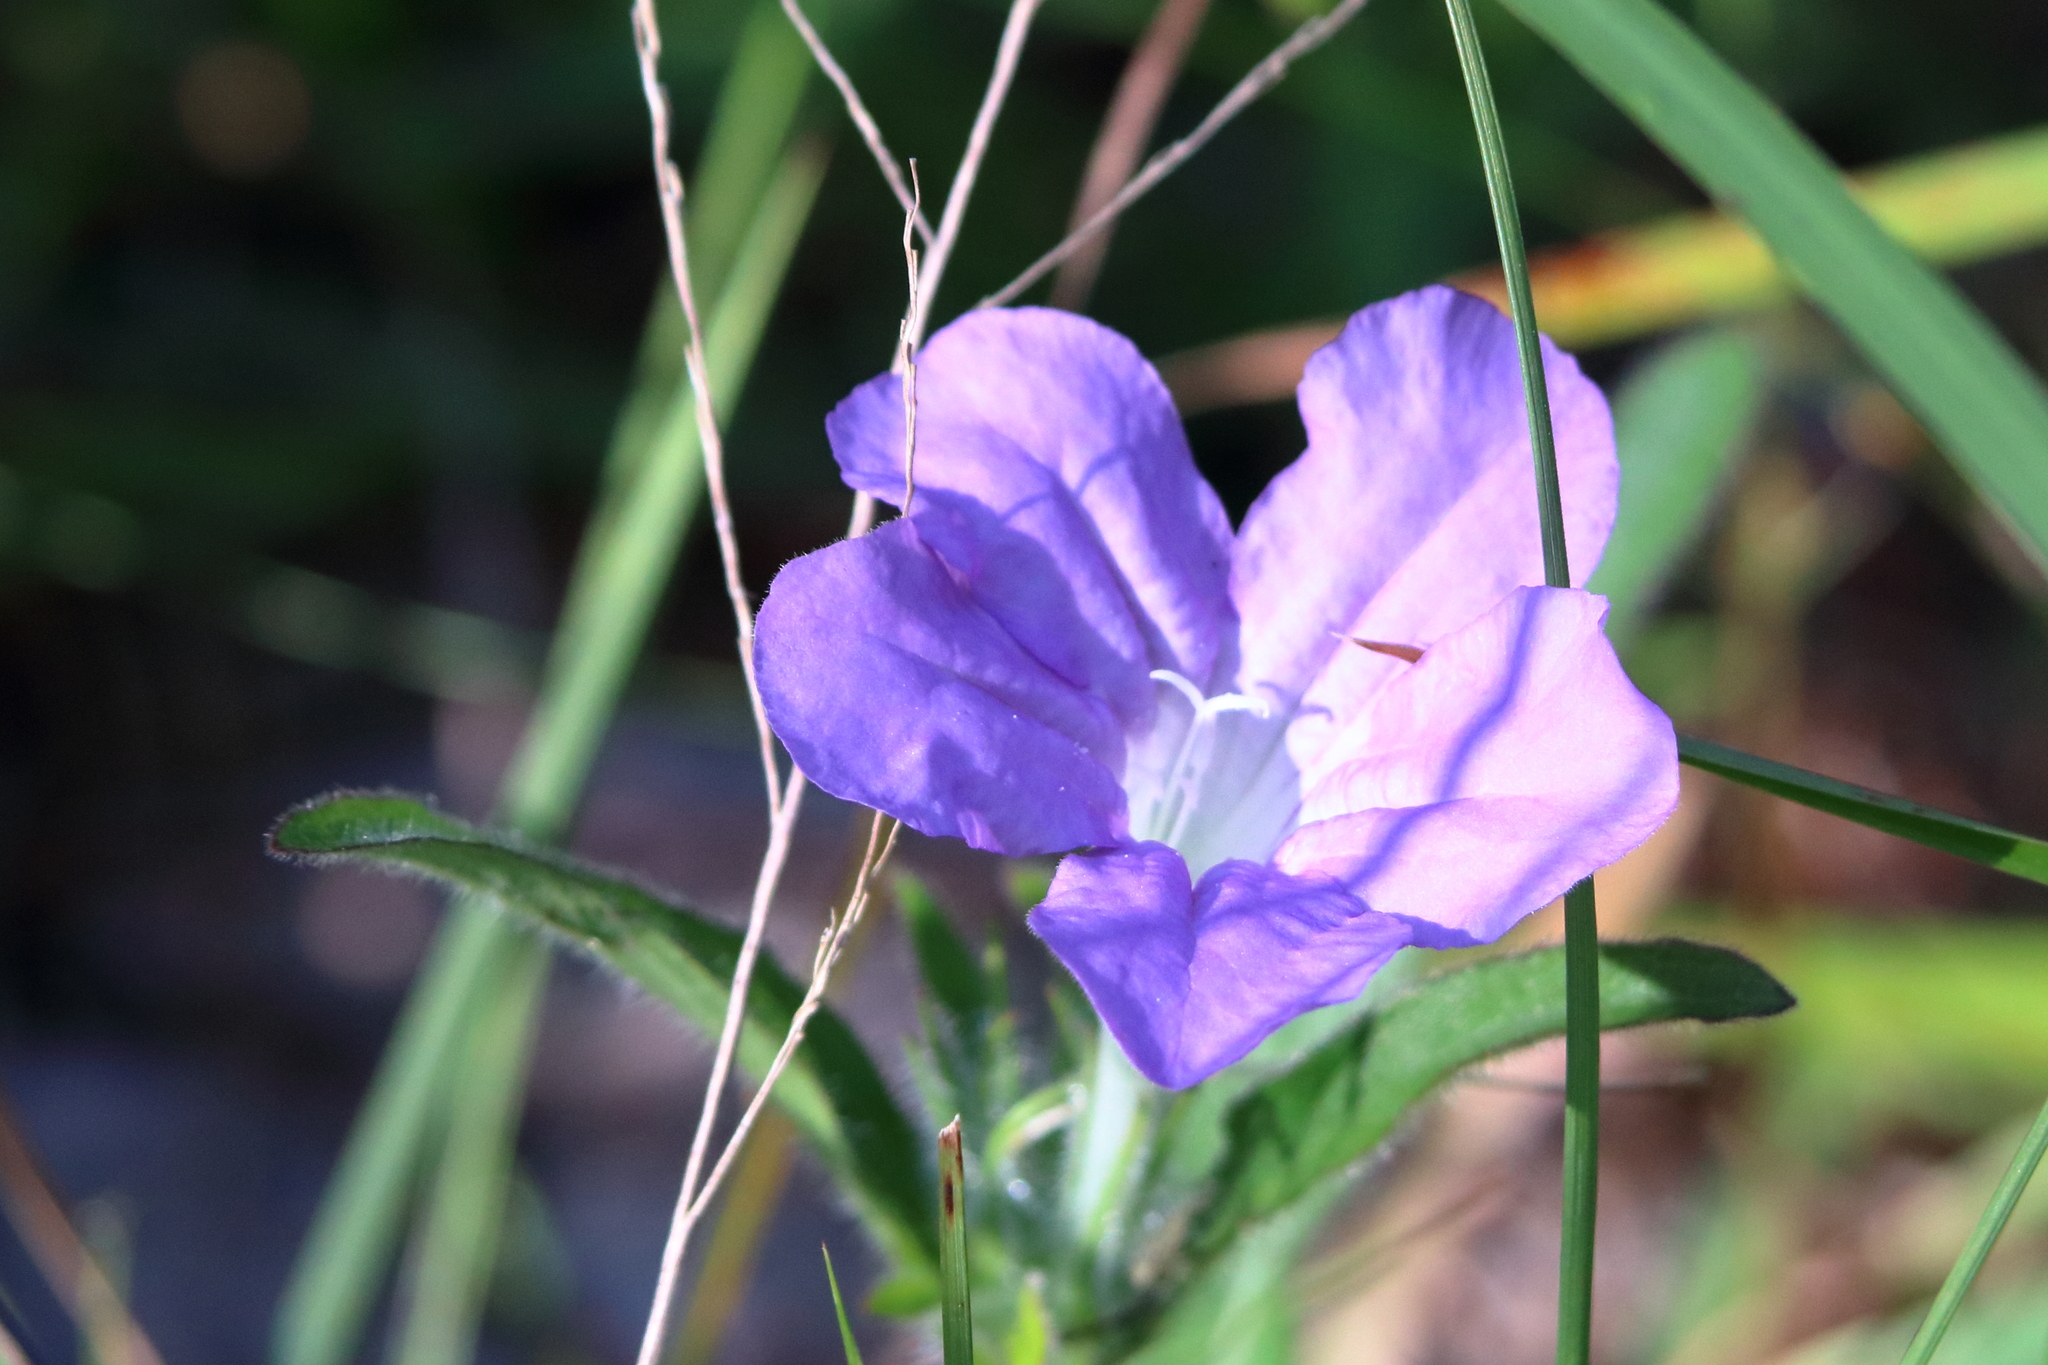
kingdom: Plantae
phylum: Tracheophyta
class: Magnoliopsida
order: Lamiales
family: Acanthaceae
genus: Ruellia
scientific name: Ruellia caroliniensis
